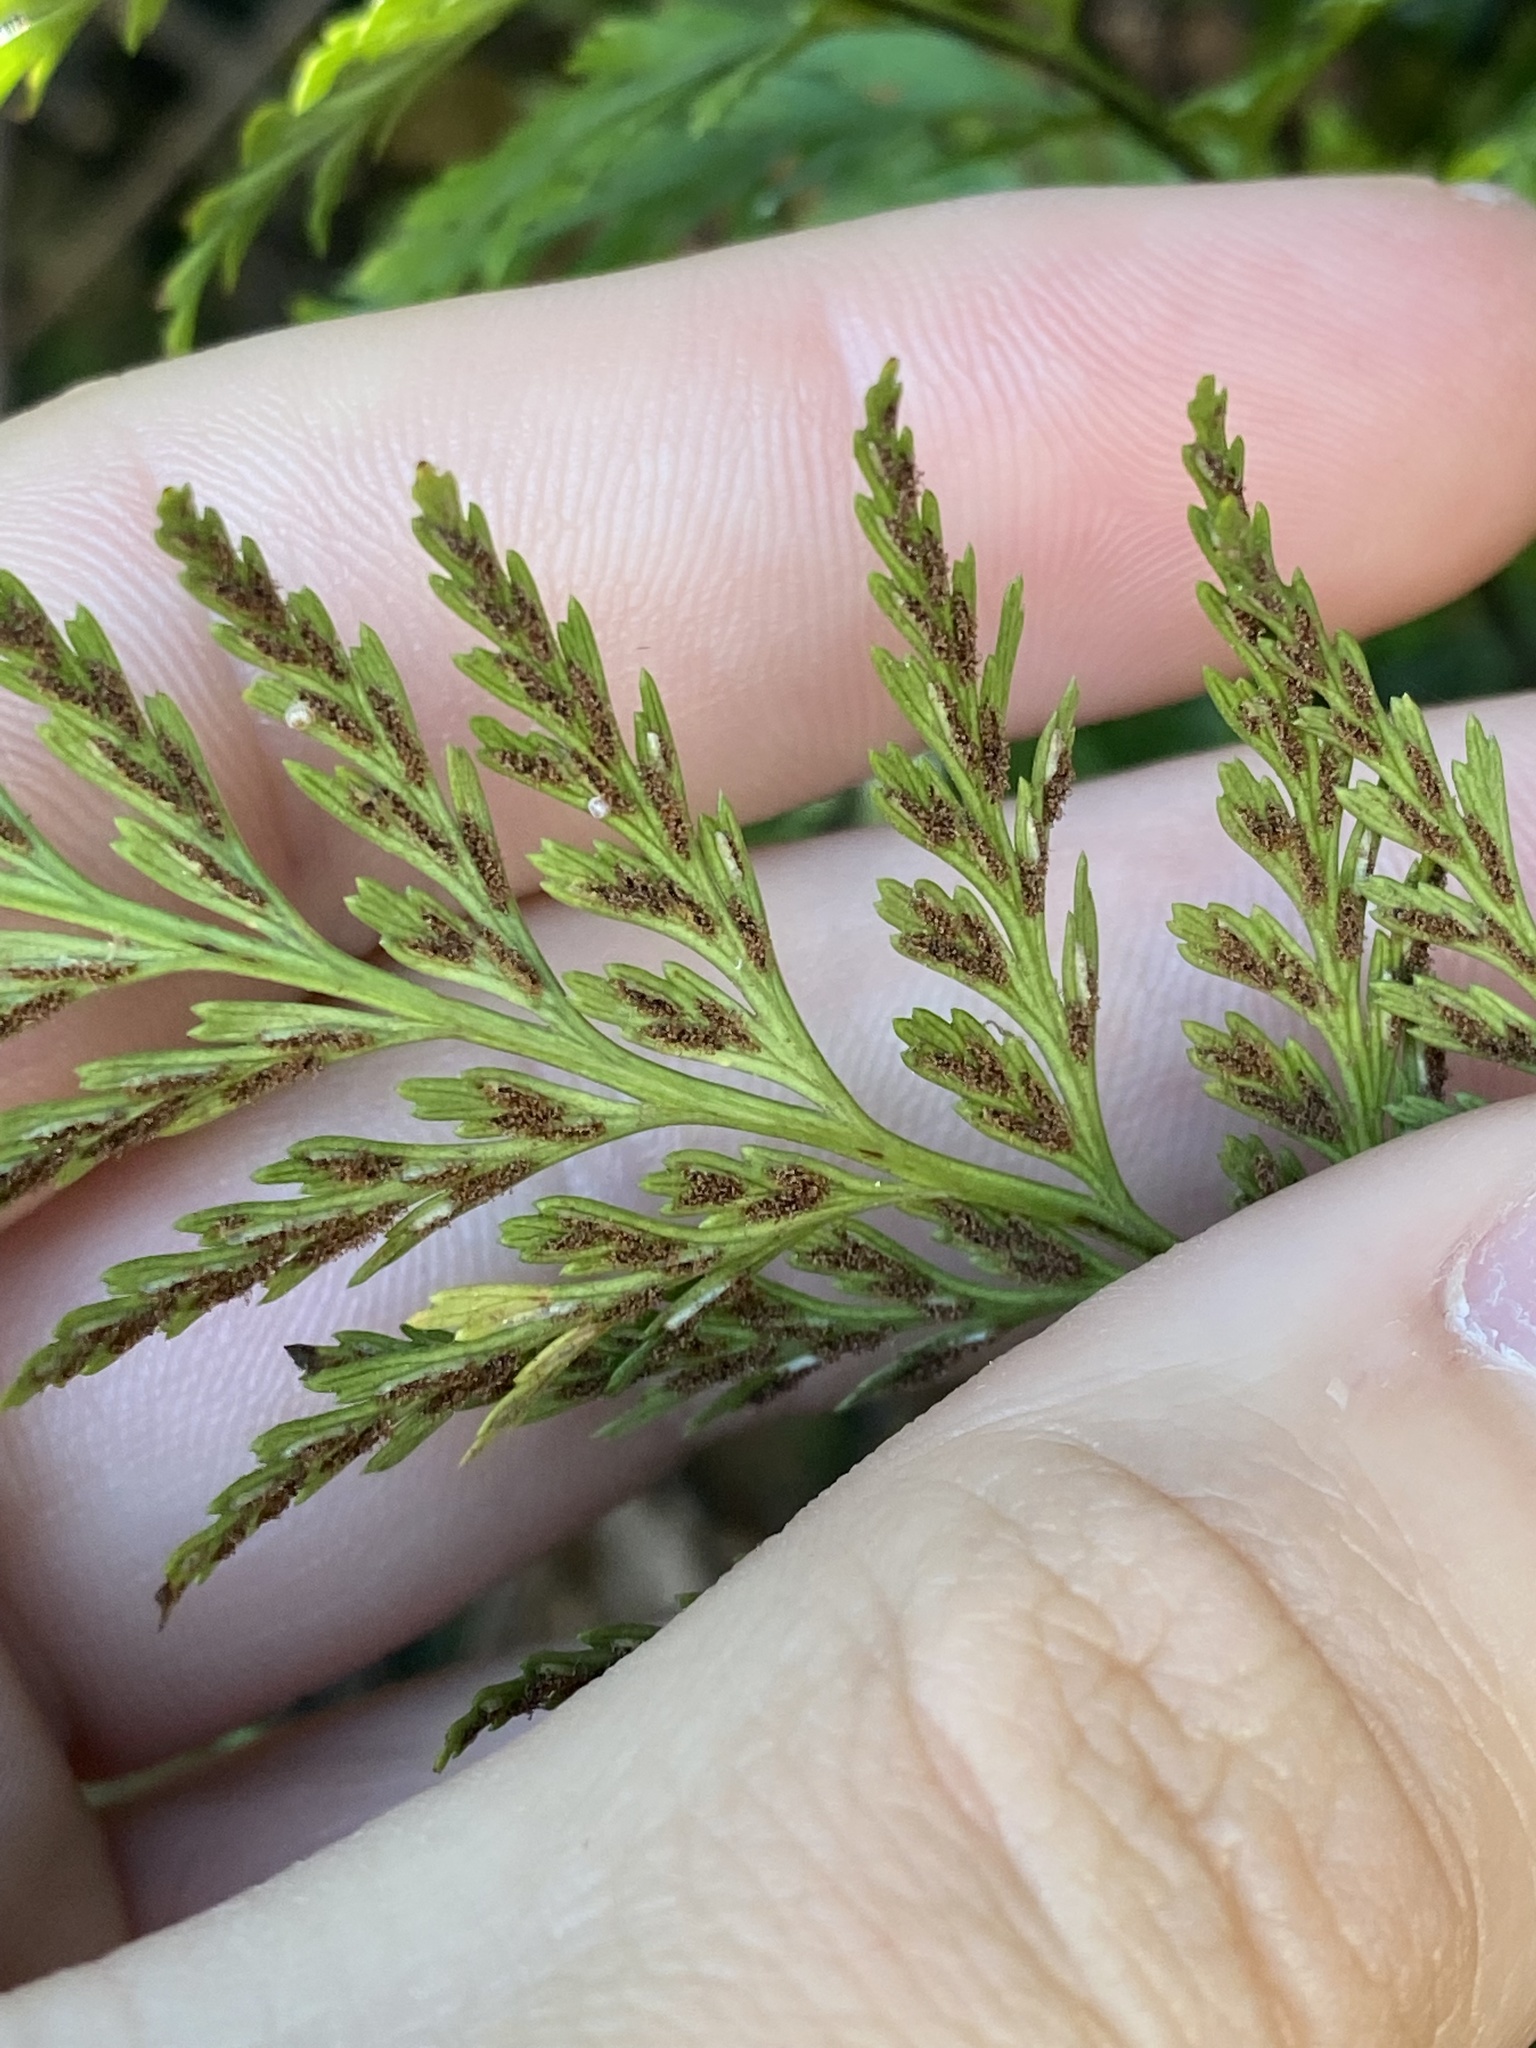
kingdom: Plantae
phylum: Tracheophyta
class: Polypodiopsida
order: Polypodiales
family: Aspleniaceae
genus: Asplenium
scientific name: Asplenium onopteris
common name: Irish spleenwort
